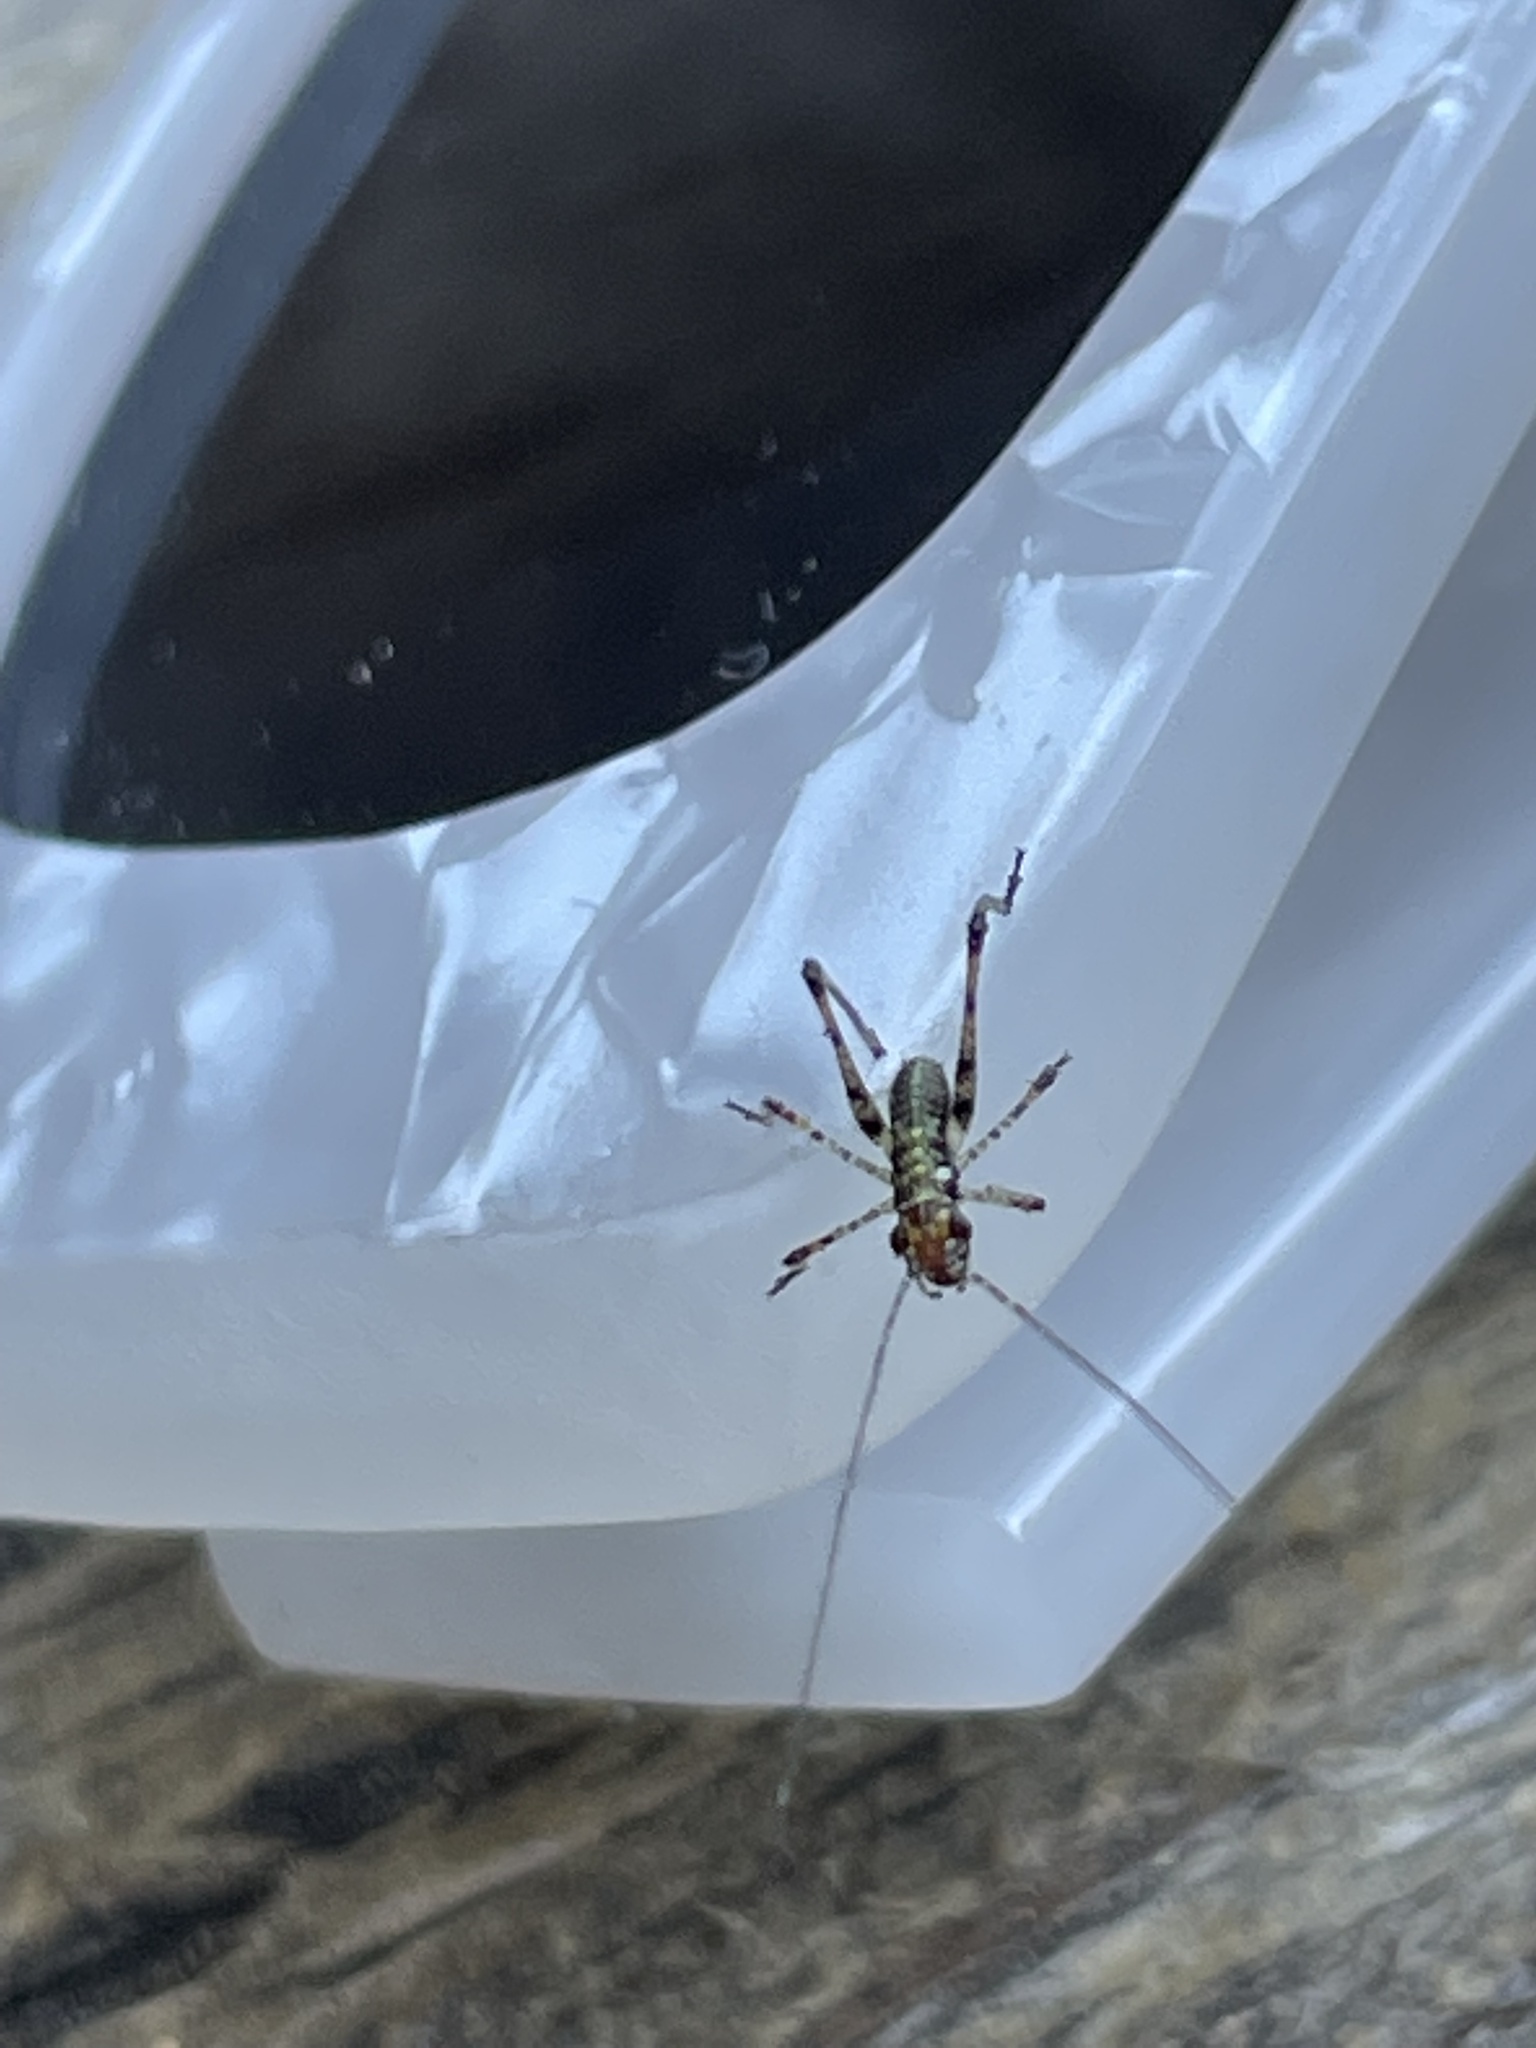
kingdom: Animalia
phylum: Arthropoda
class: Insecta
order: Orthoptera
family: Tettigoniidae
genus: Phaneroptera
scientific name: Phaneroptera nana
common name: Southern sickle bush-cricket
